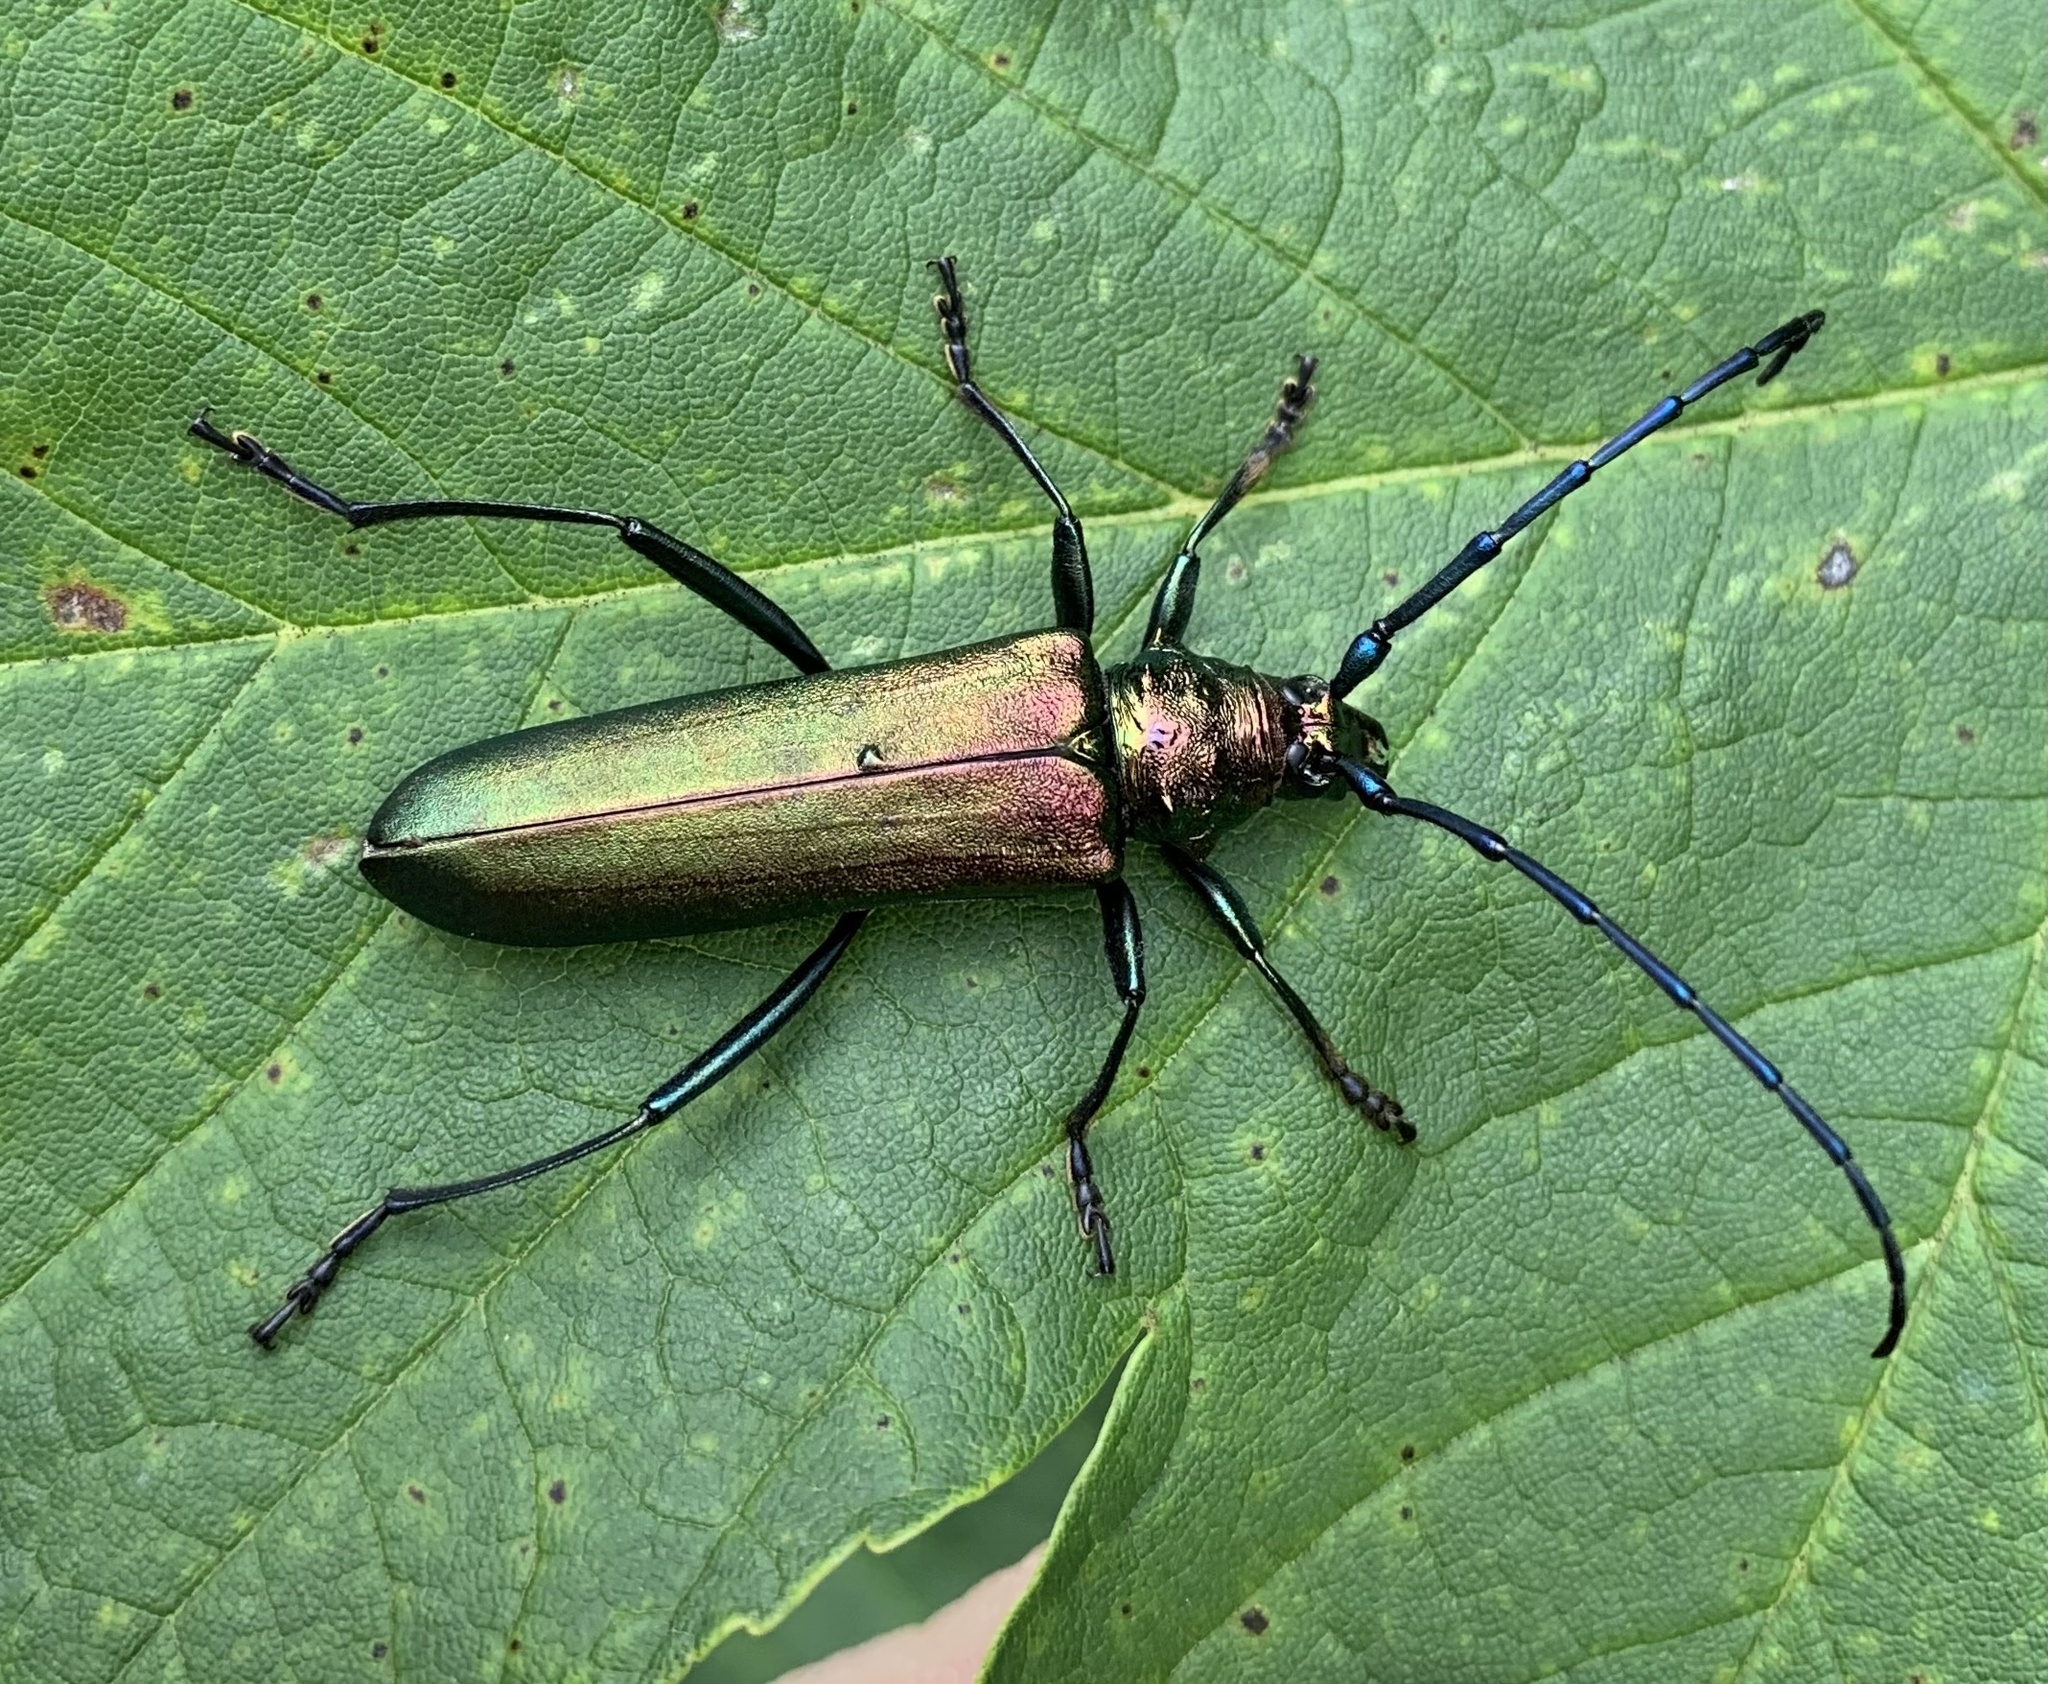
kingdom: Animalia
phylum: Arthropoda
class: Insecta
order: Coleoptera
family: Cerambycidae
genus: Aromia
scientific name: Aromia moschata
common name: Musk beetle
